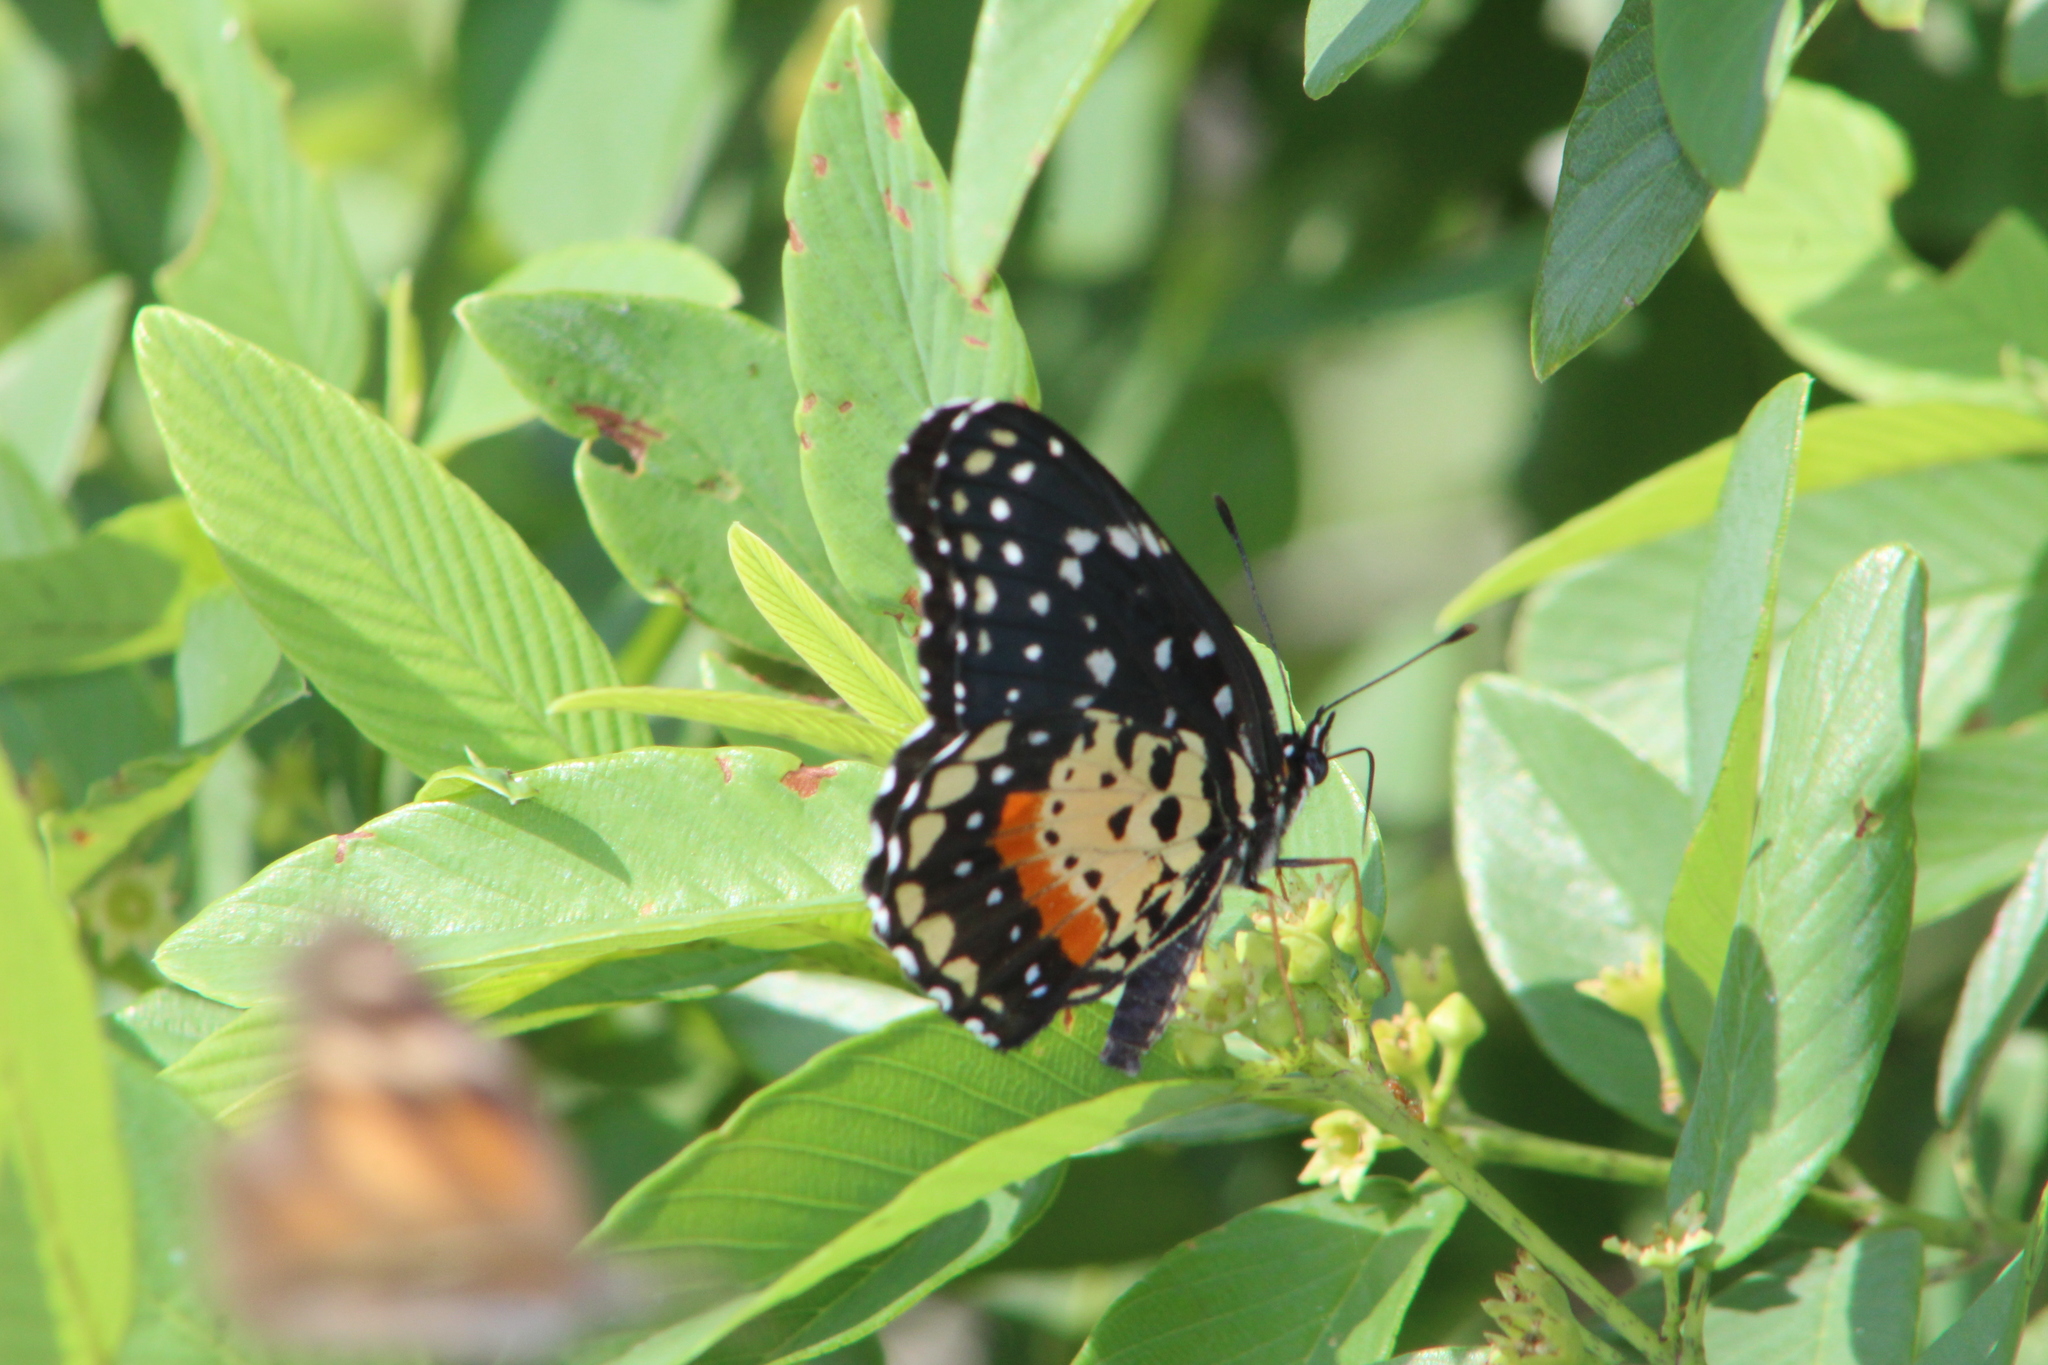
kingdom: Animalia
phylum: Arthropoda
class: Insecta
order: Lepidoptera
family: Nymphalidae
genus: Chlosyne
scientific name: Chlosyne janais
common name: Crimson patch
